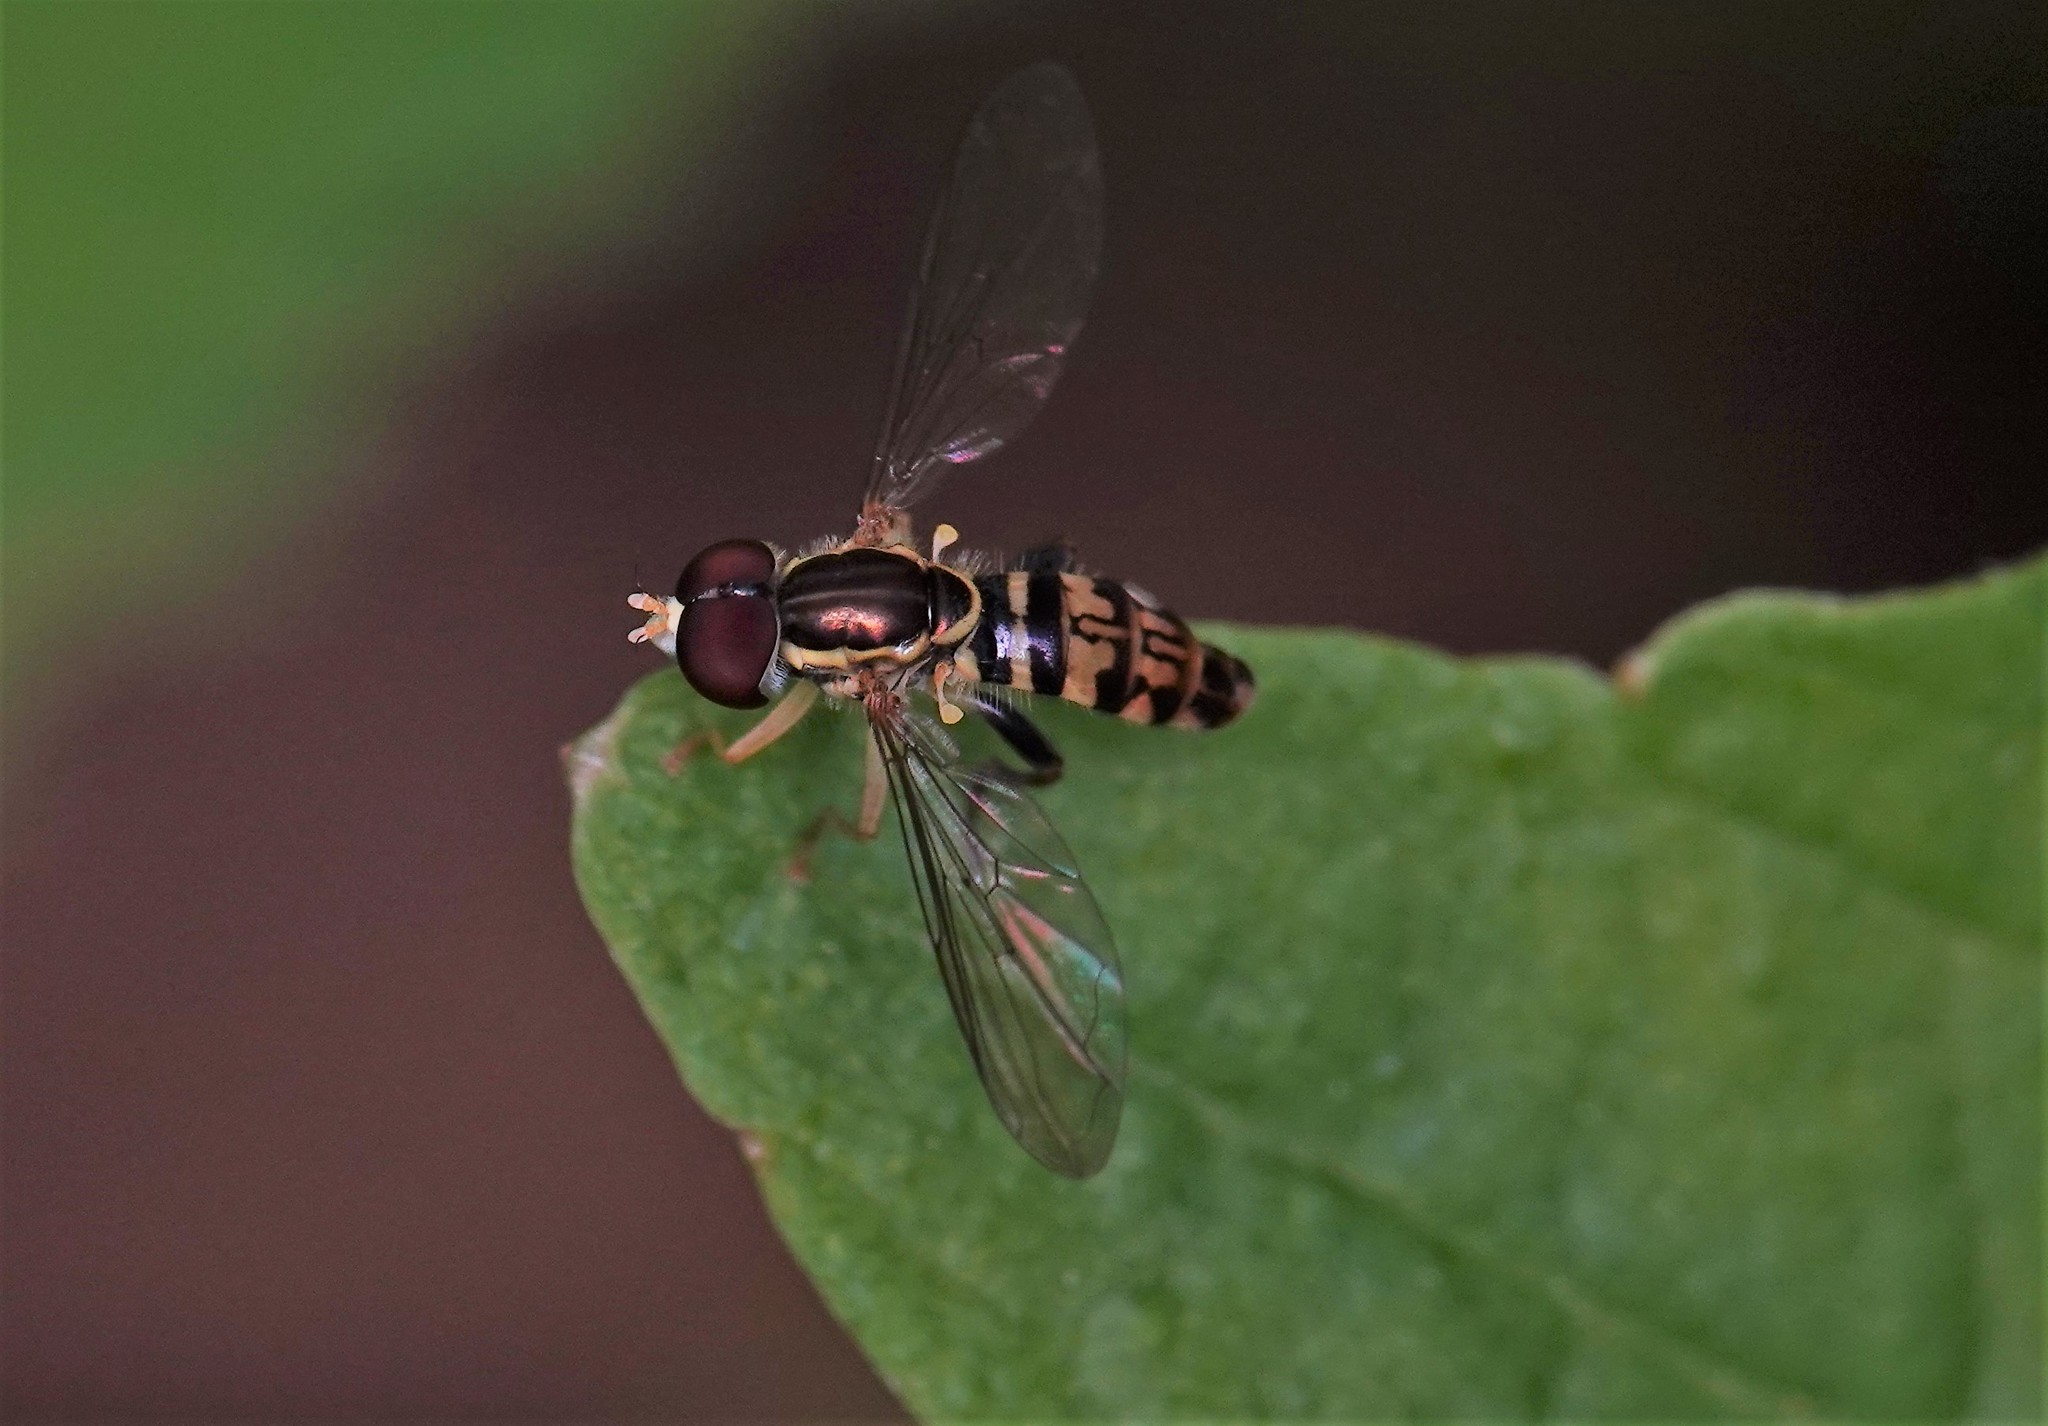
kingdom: Animalia
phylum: Arthropoda
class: Insecta
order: Diptera
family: Syrphidae
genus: Toxomerus
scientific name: Toxomerus geminatus
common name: Eastern calligrapher
